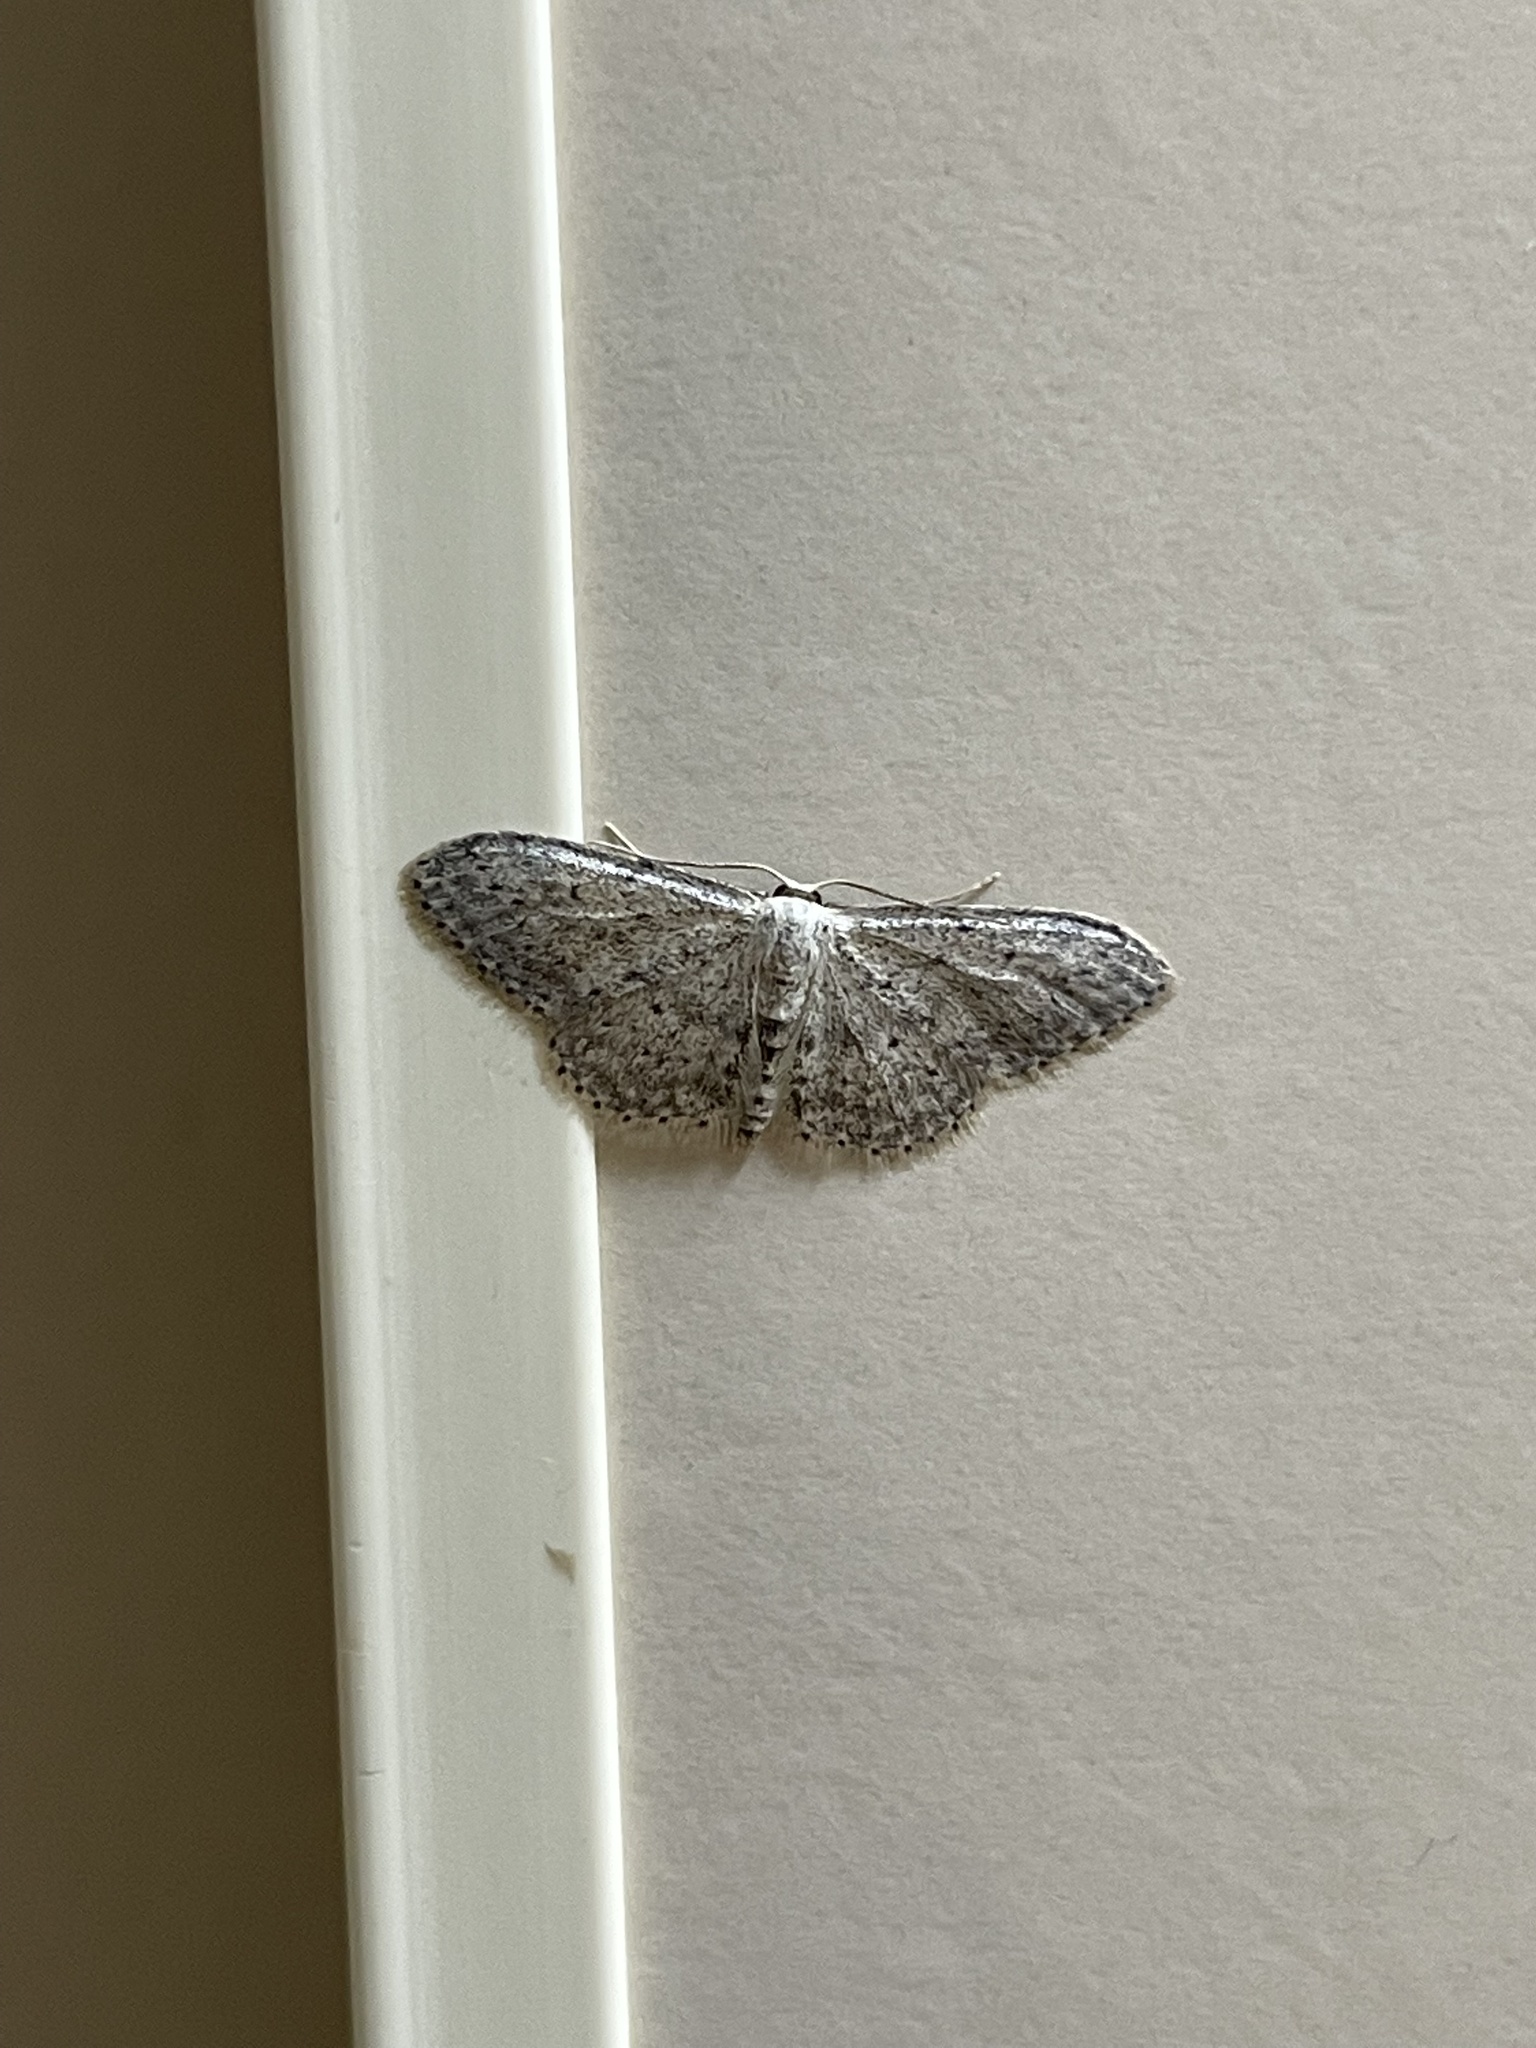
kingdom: Animalia
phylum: Arthropoda
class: Insecta
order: Lepidoptera
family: Geometridae
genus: Idaea
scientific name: Idaea seriata
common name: Small dusty wave
